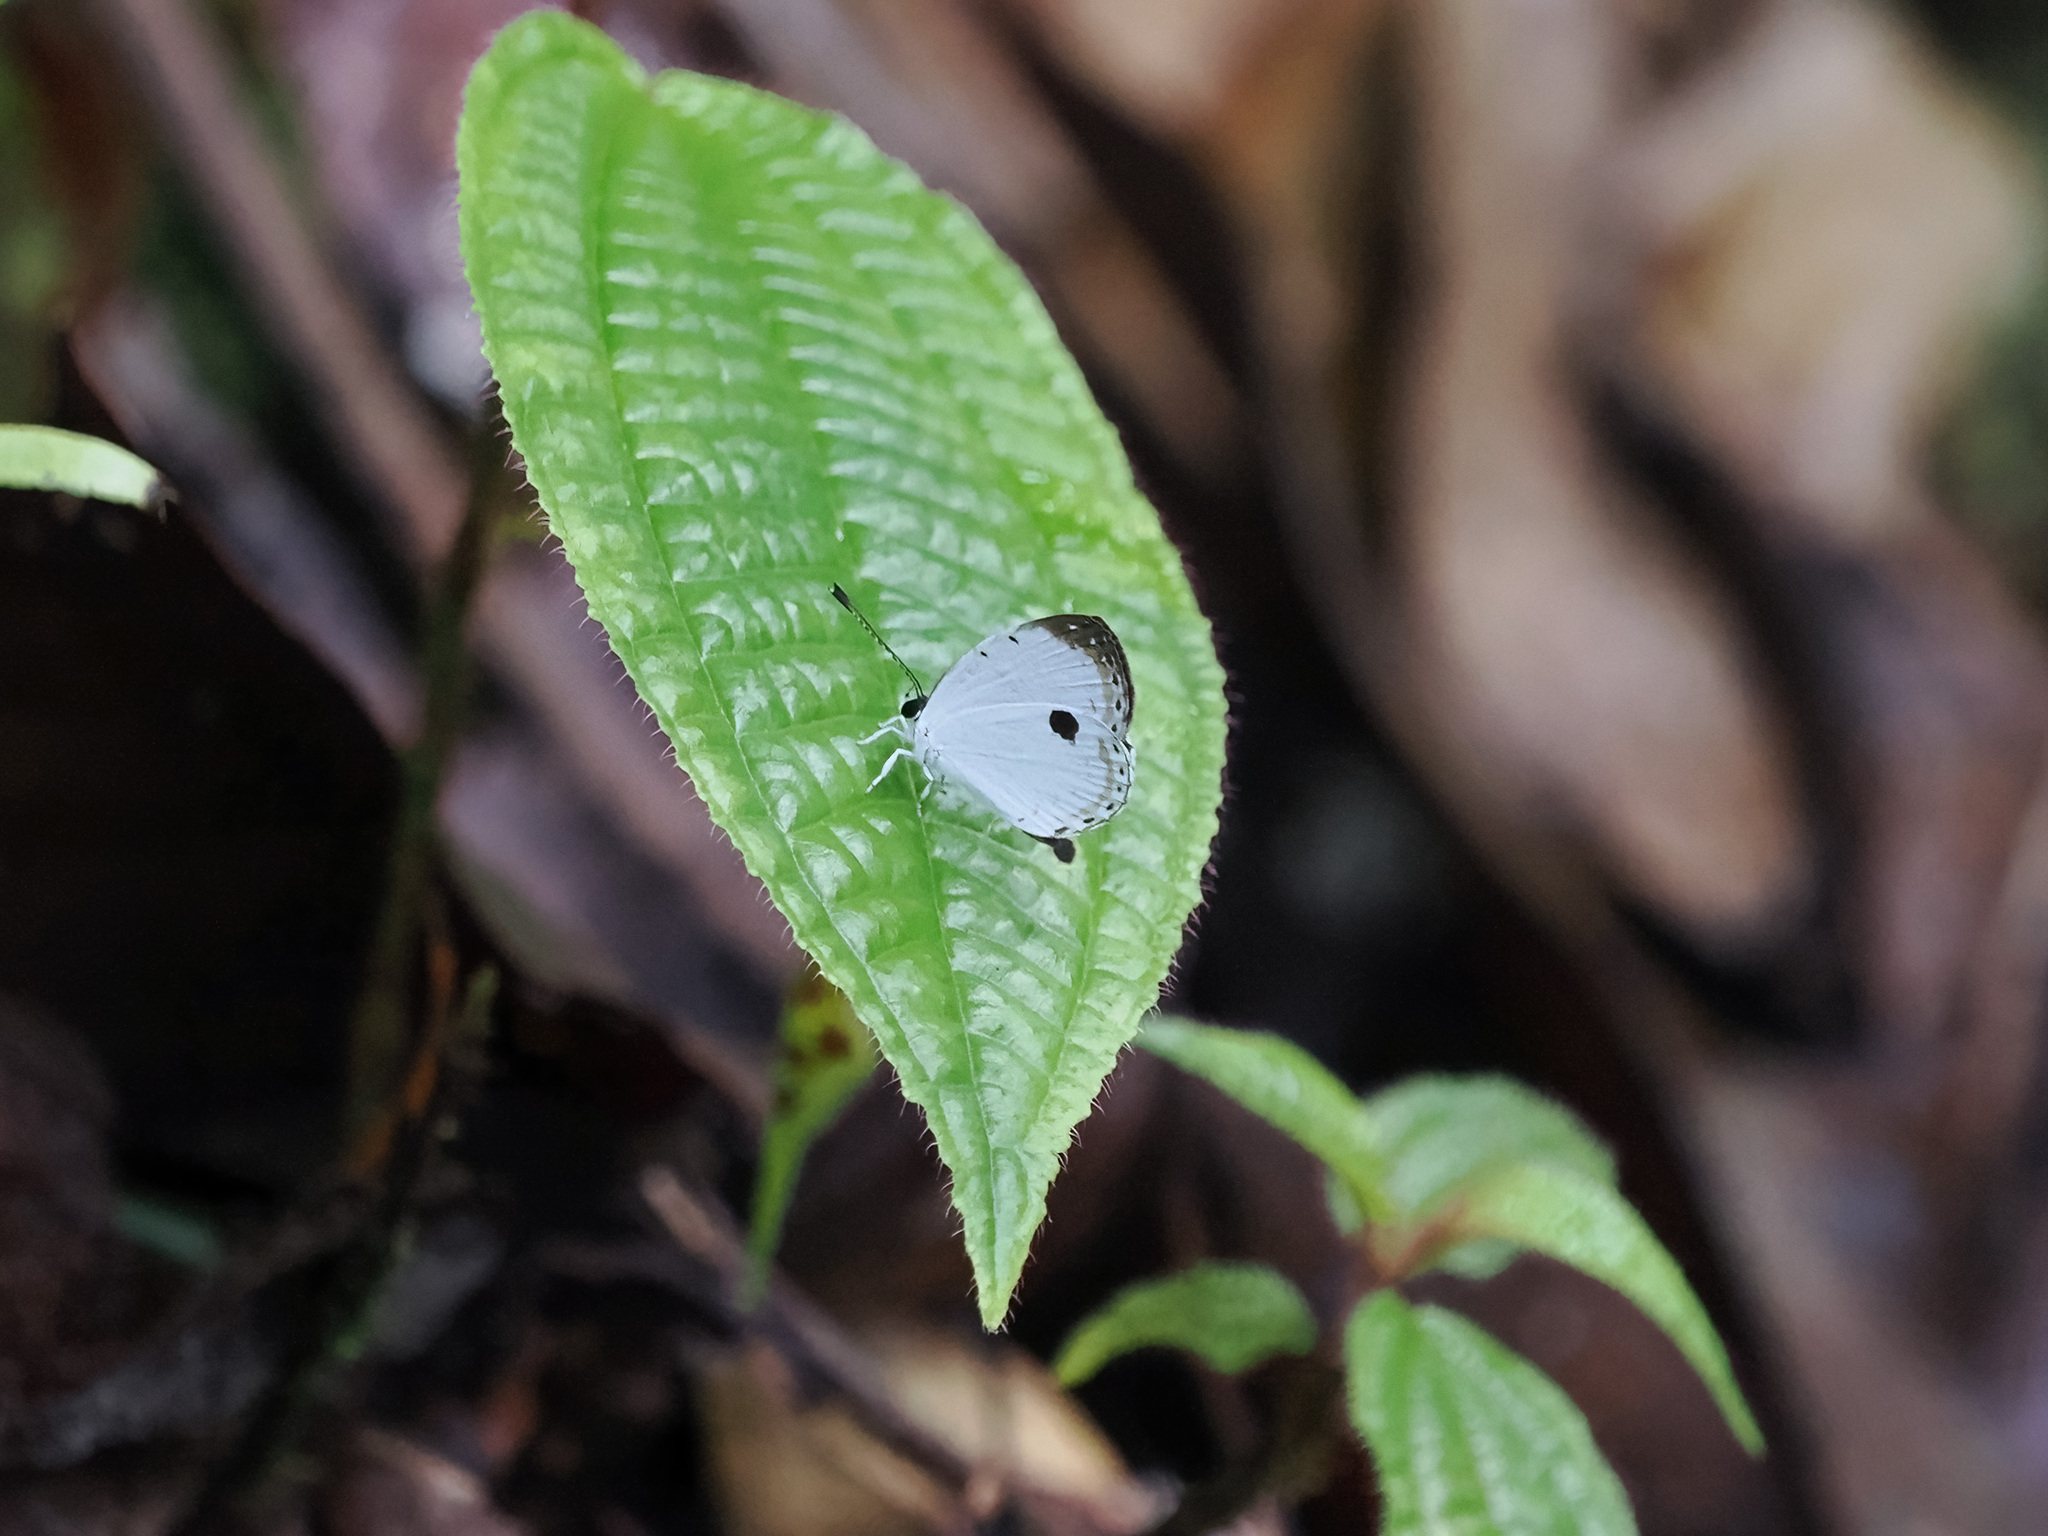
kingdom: Animalia
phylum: Arthropoda
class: Insecta
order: Lepidoptera
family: Lycaenidae
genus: Pithecops
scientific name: Pithecops corvus
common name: Forest quaker
